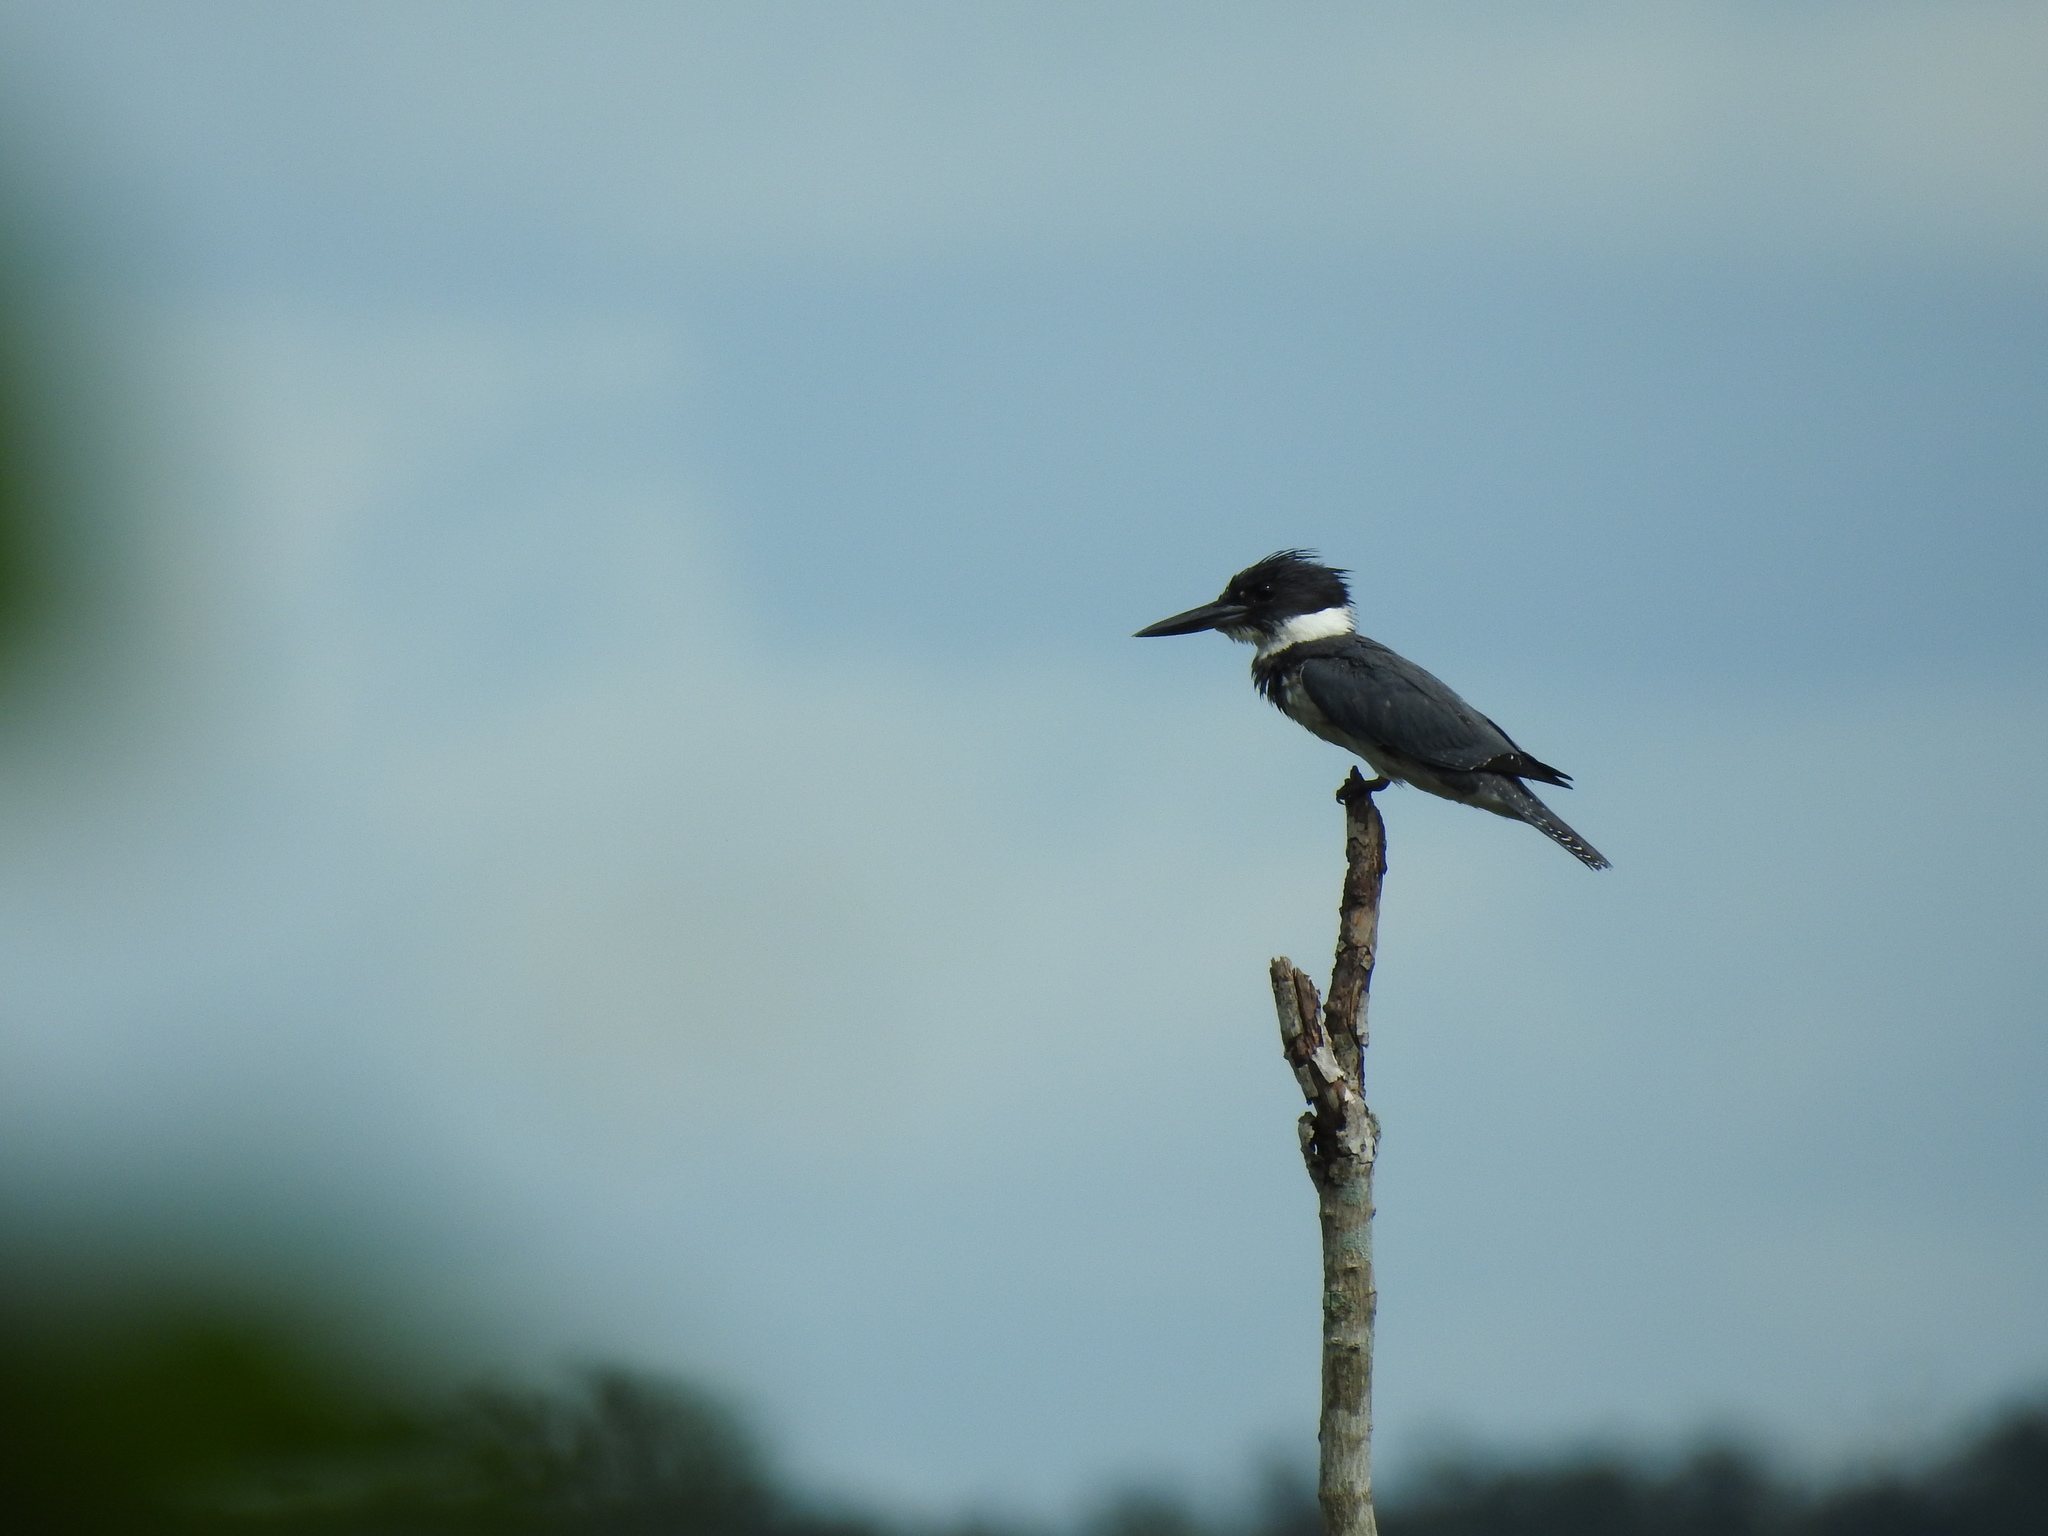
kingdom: Animalia
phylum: Chordata
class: Aves
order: Coraciiformes
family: Alcedinidae
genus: Megaceryle
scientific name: Megaceryle alcyon
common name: Belted kingfisher
